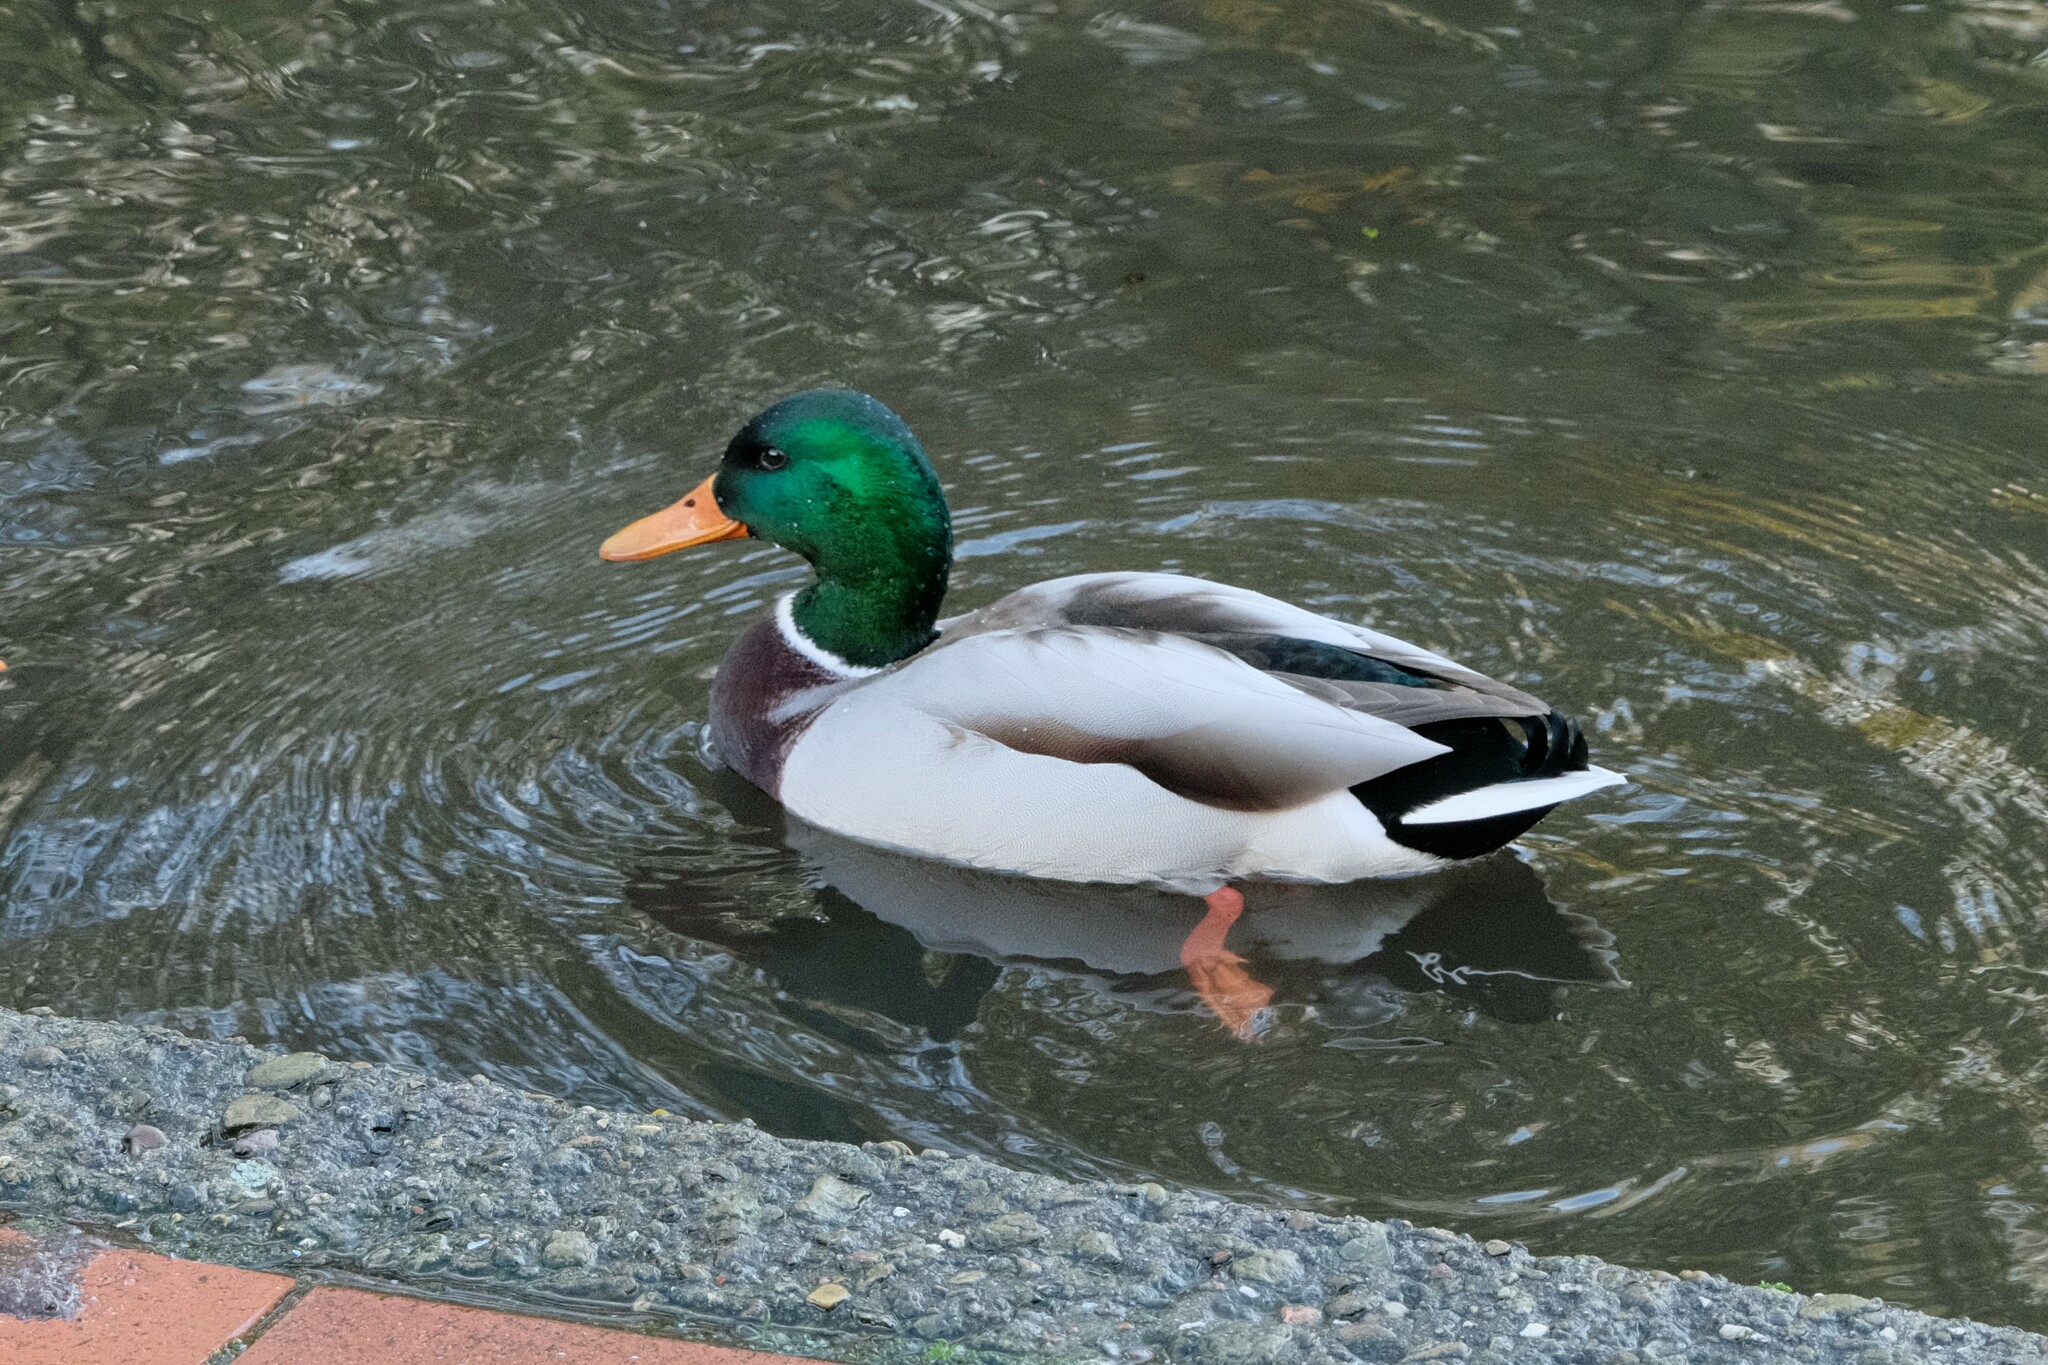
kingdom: Animalia
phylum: Chordata
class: Aves
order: Anseriformes
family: Anatidae
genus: Anas
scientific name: Anas platyrhynchos
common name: Mallard
